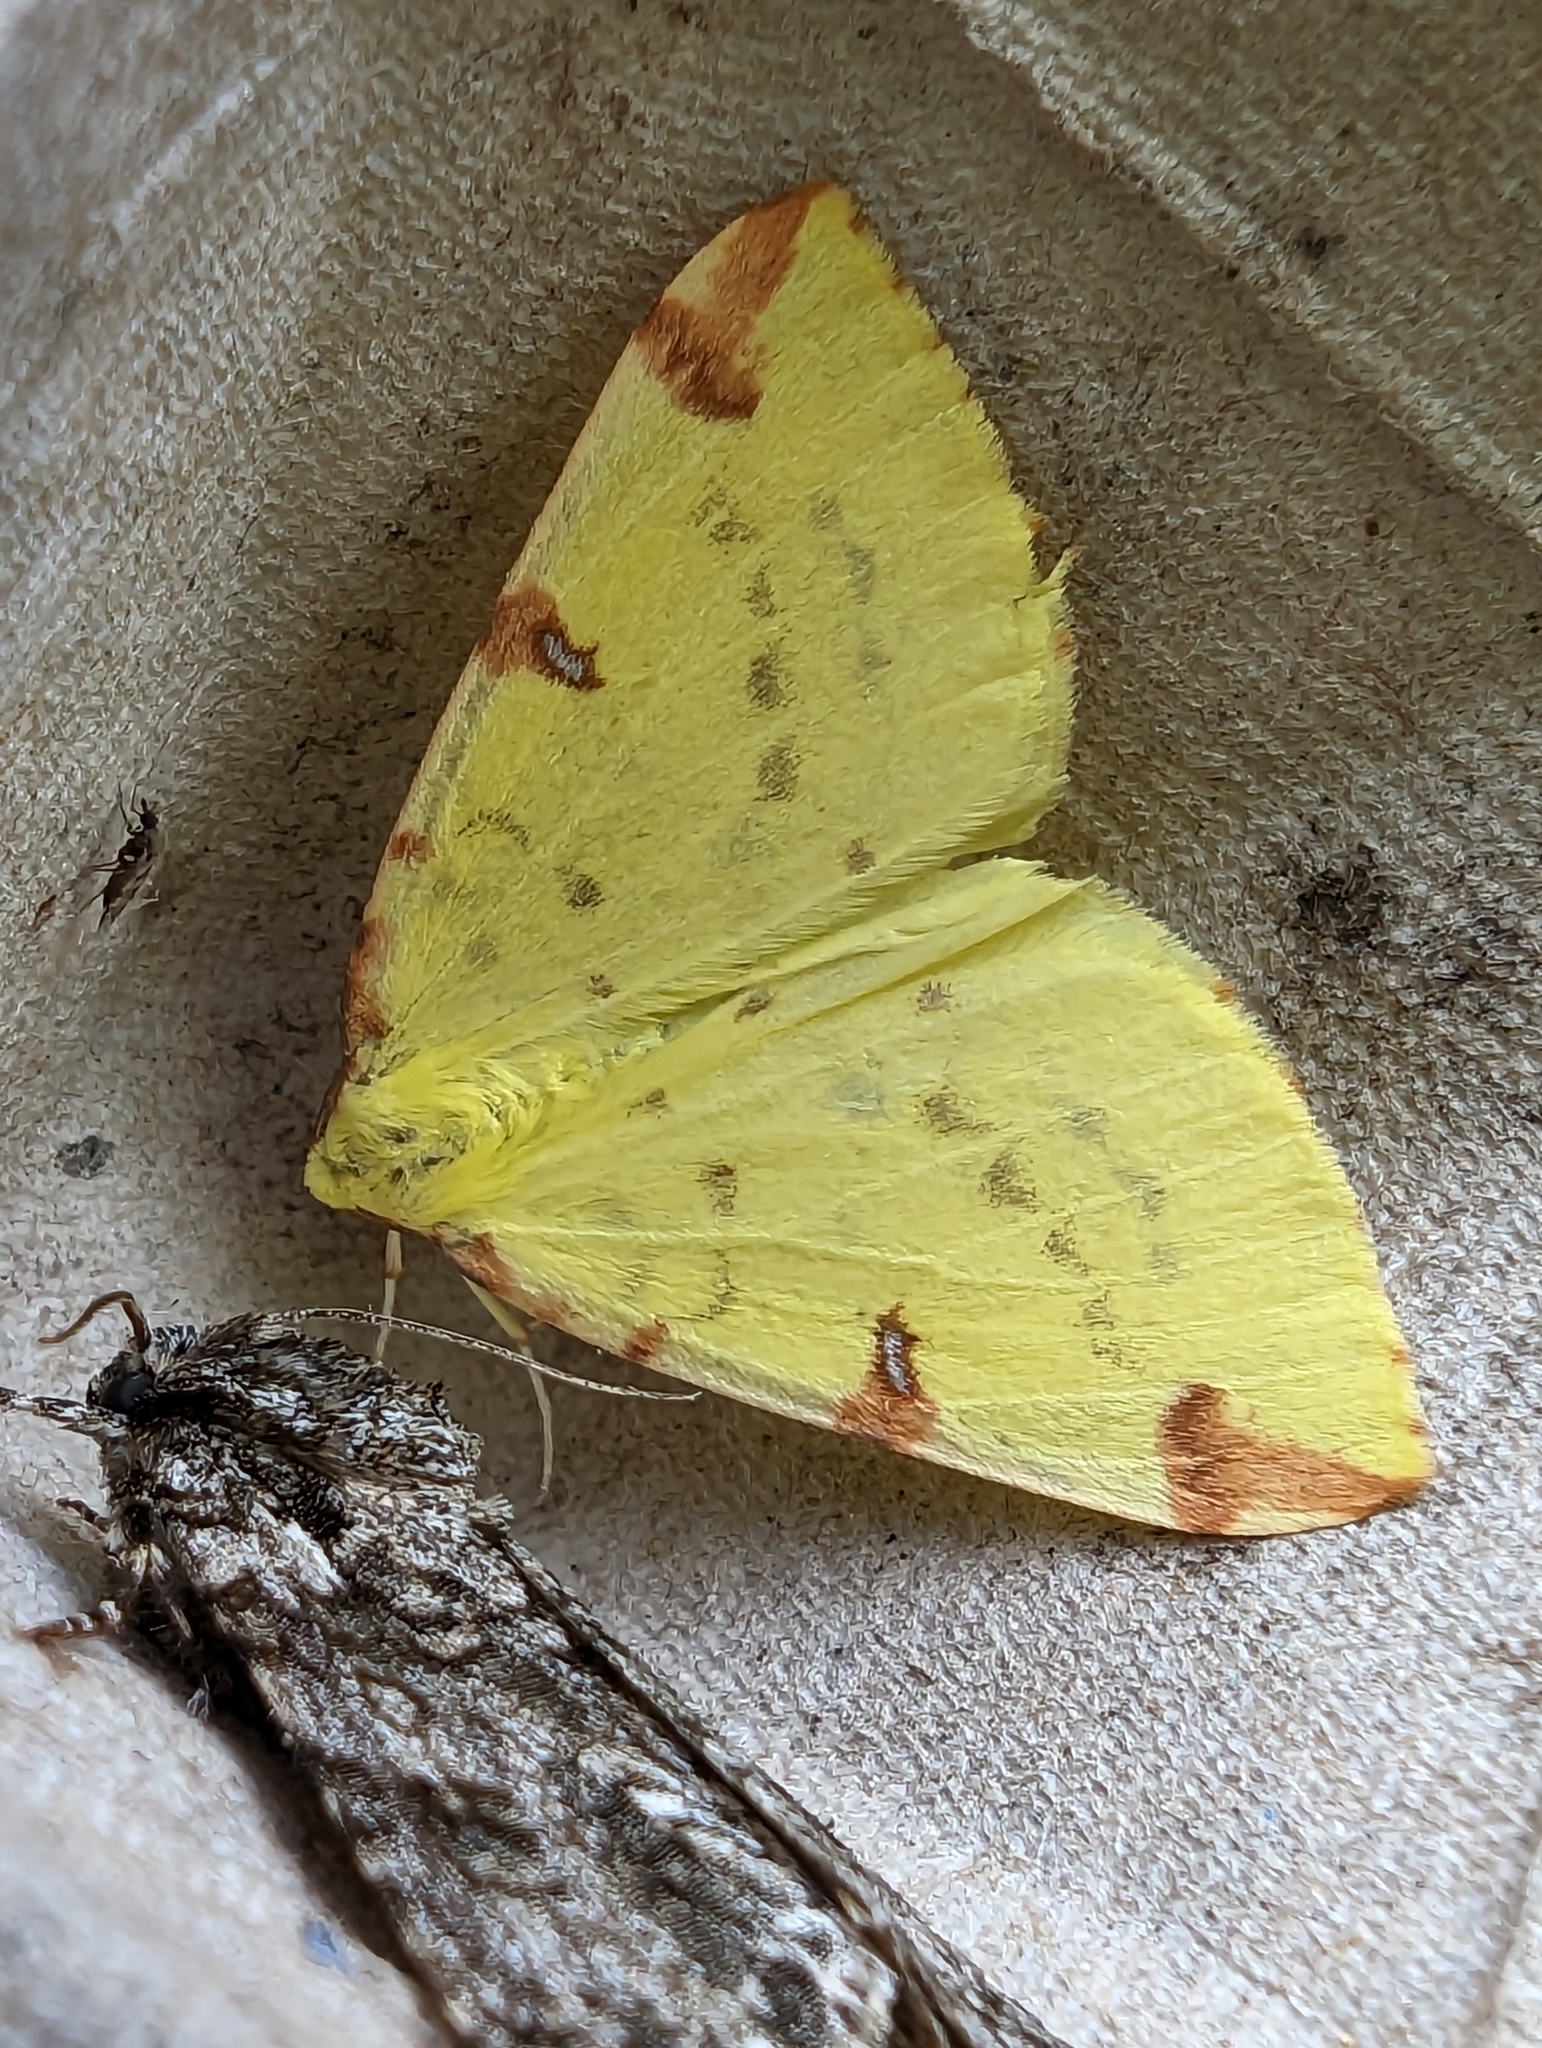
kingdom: Animalia
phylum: Arthropoda
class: Insecta
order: Lepidoptera
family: Geometridae
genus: Opisthograptis
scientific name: Opisthograptis luteolata
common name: Brimstone moth
